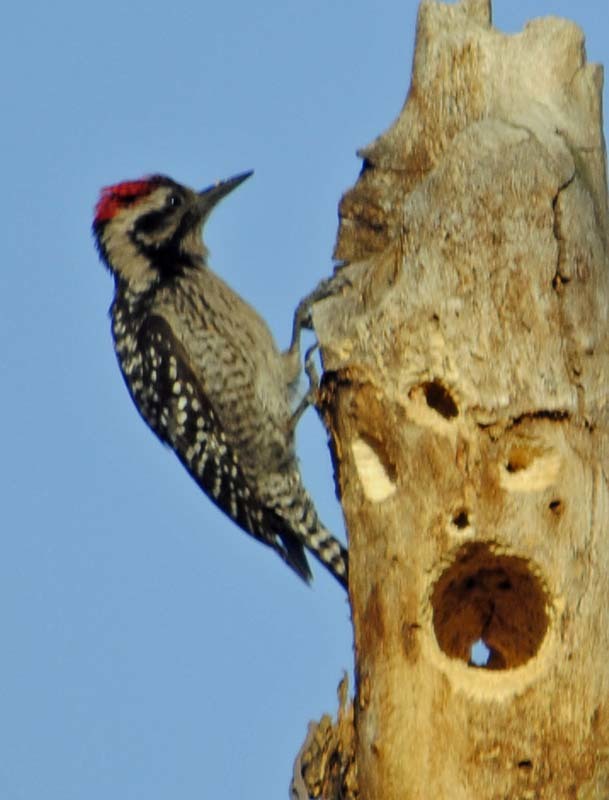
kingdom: Animalia
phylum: Chordata
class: Aves
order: Piciformes
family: Picidae
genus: Dryobates
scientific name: Dryobates scalaris
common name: Ladder-backed woodpecker
